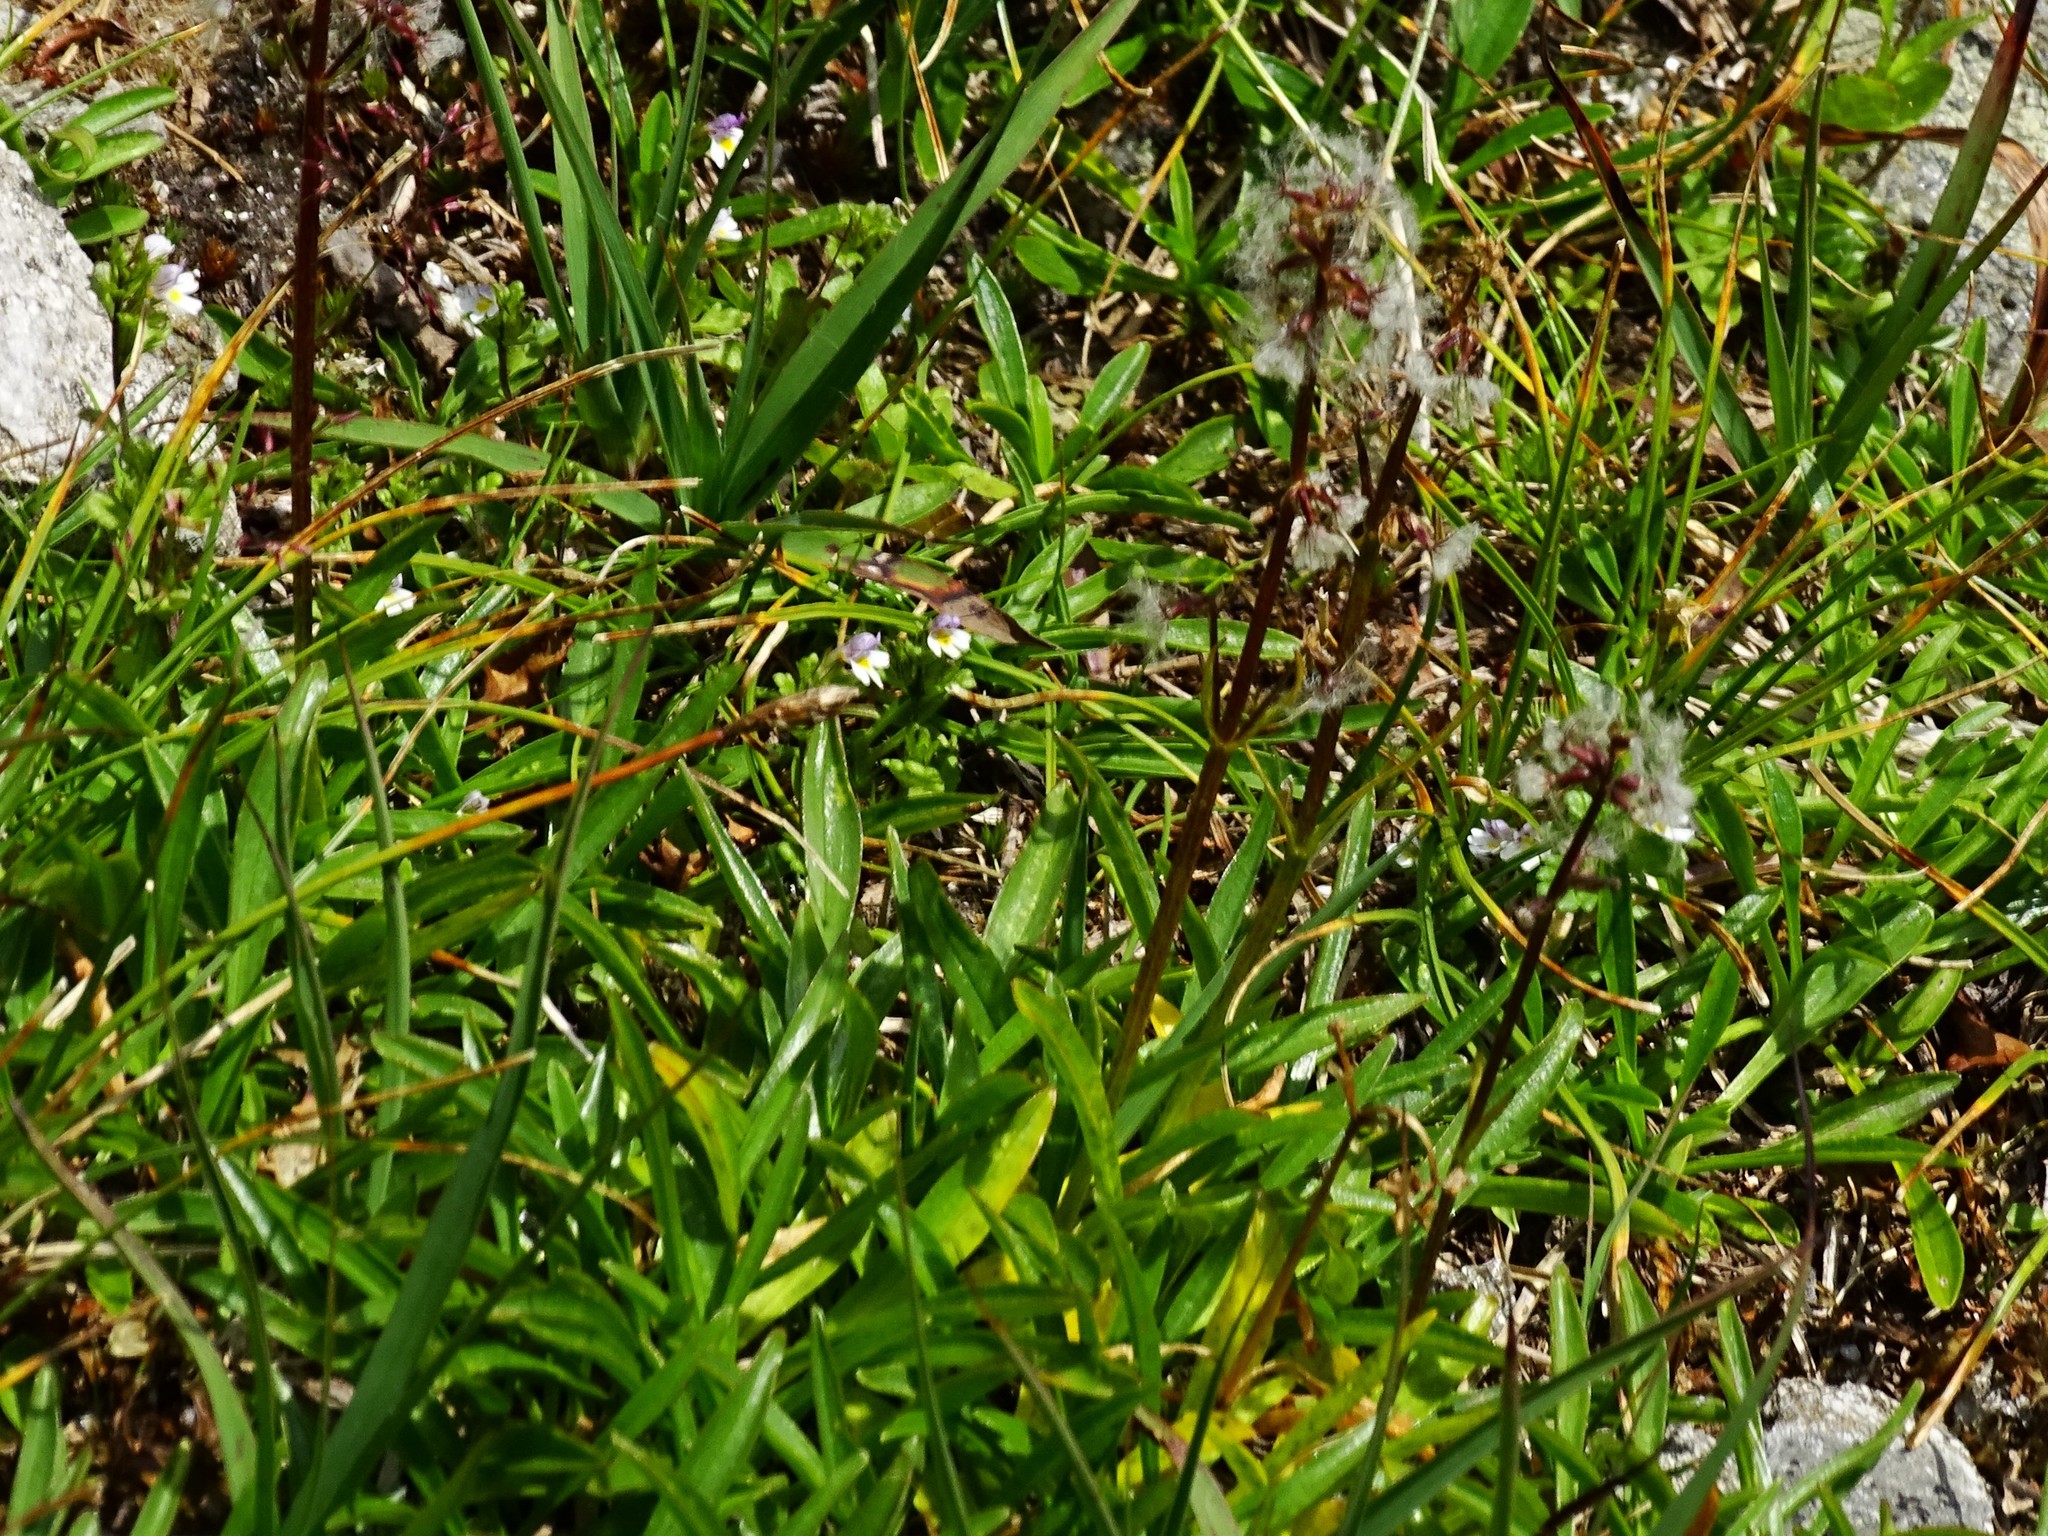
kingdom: Plantae
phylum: Tracheophyta
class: Magnoliopsida
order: Dipsacales
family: Caprifoliaceae
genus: Valeriana
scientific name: Valeriana celtica
